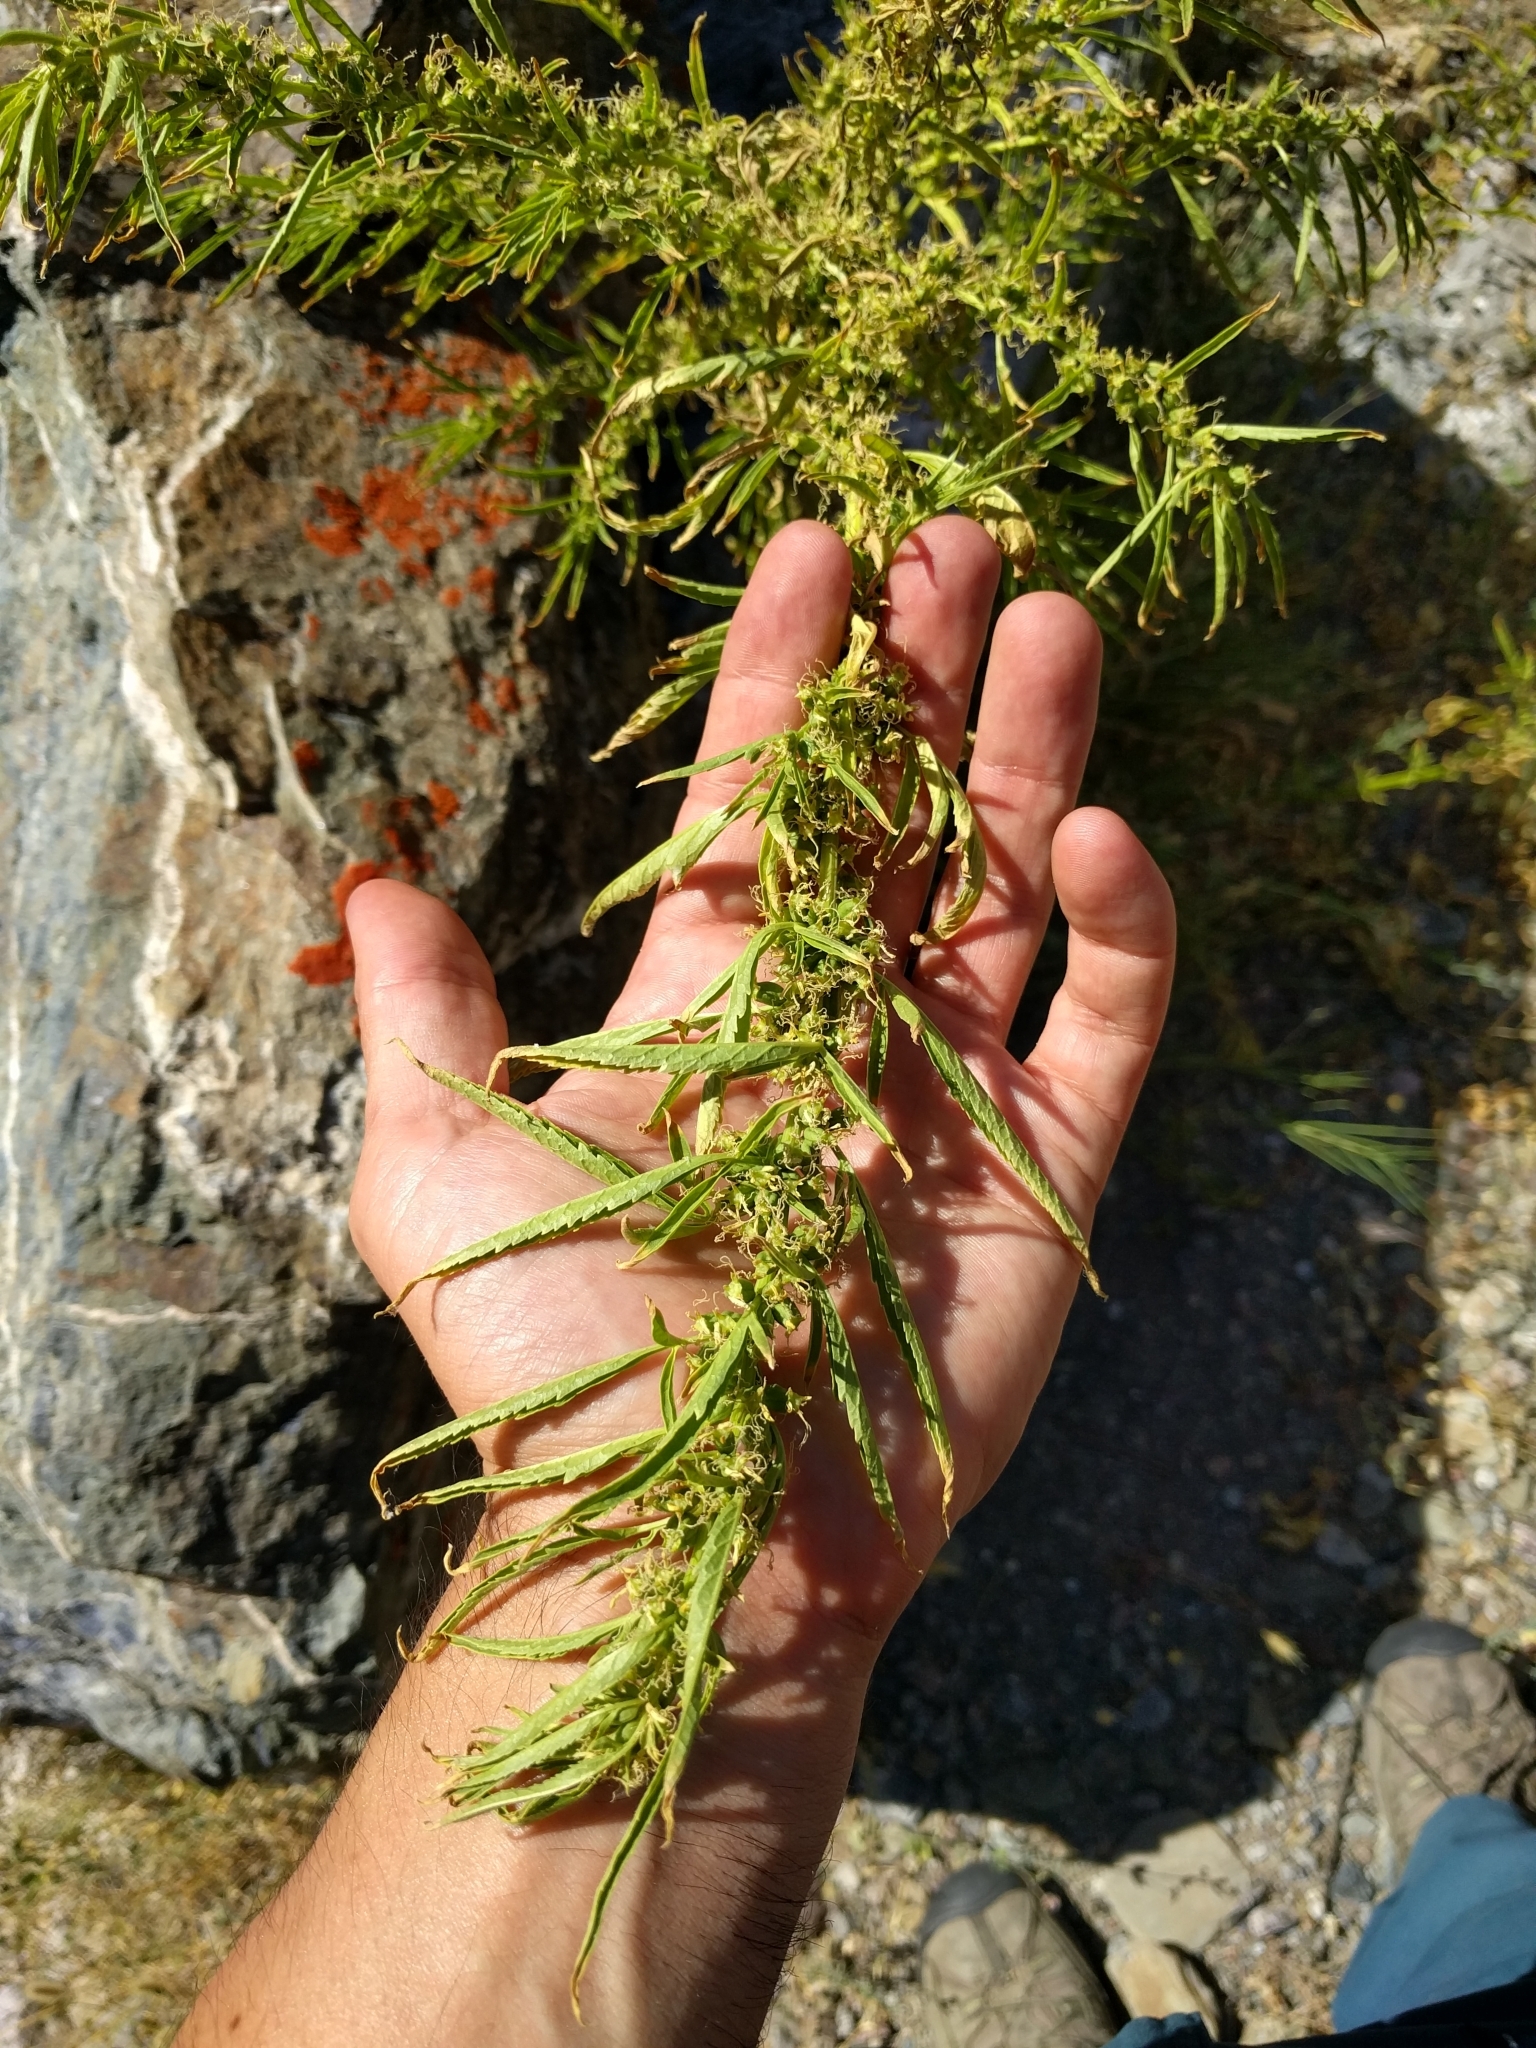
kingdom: Plantae
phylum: Tracheophyta
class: Magnoliopsida
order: Cucurbitales
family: Datiscaceae
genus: Datisca
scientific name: Datisca glomerata
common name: Durango-root
